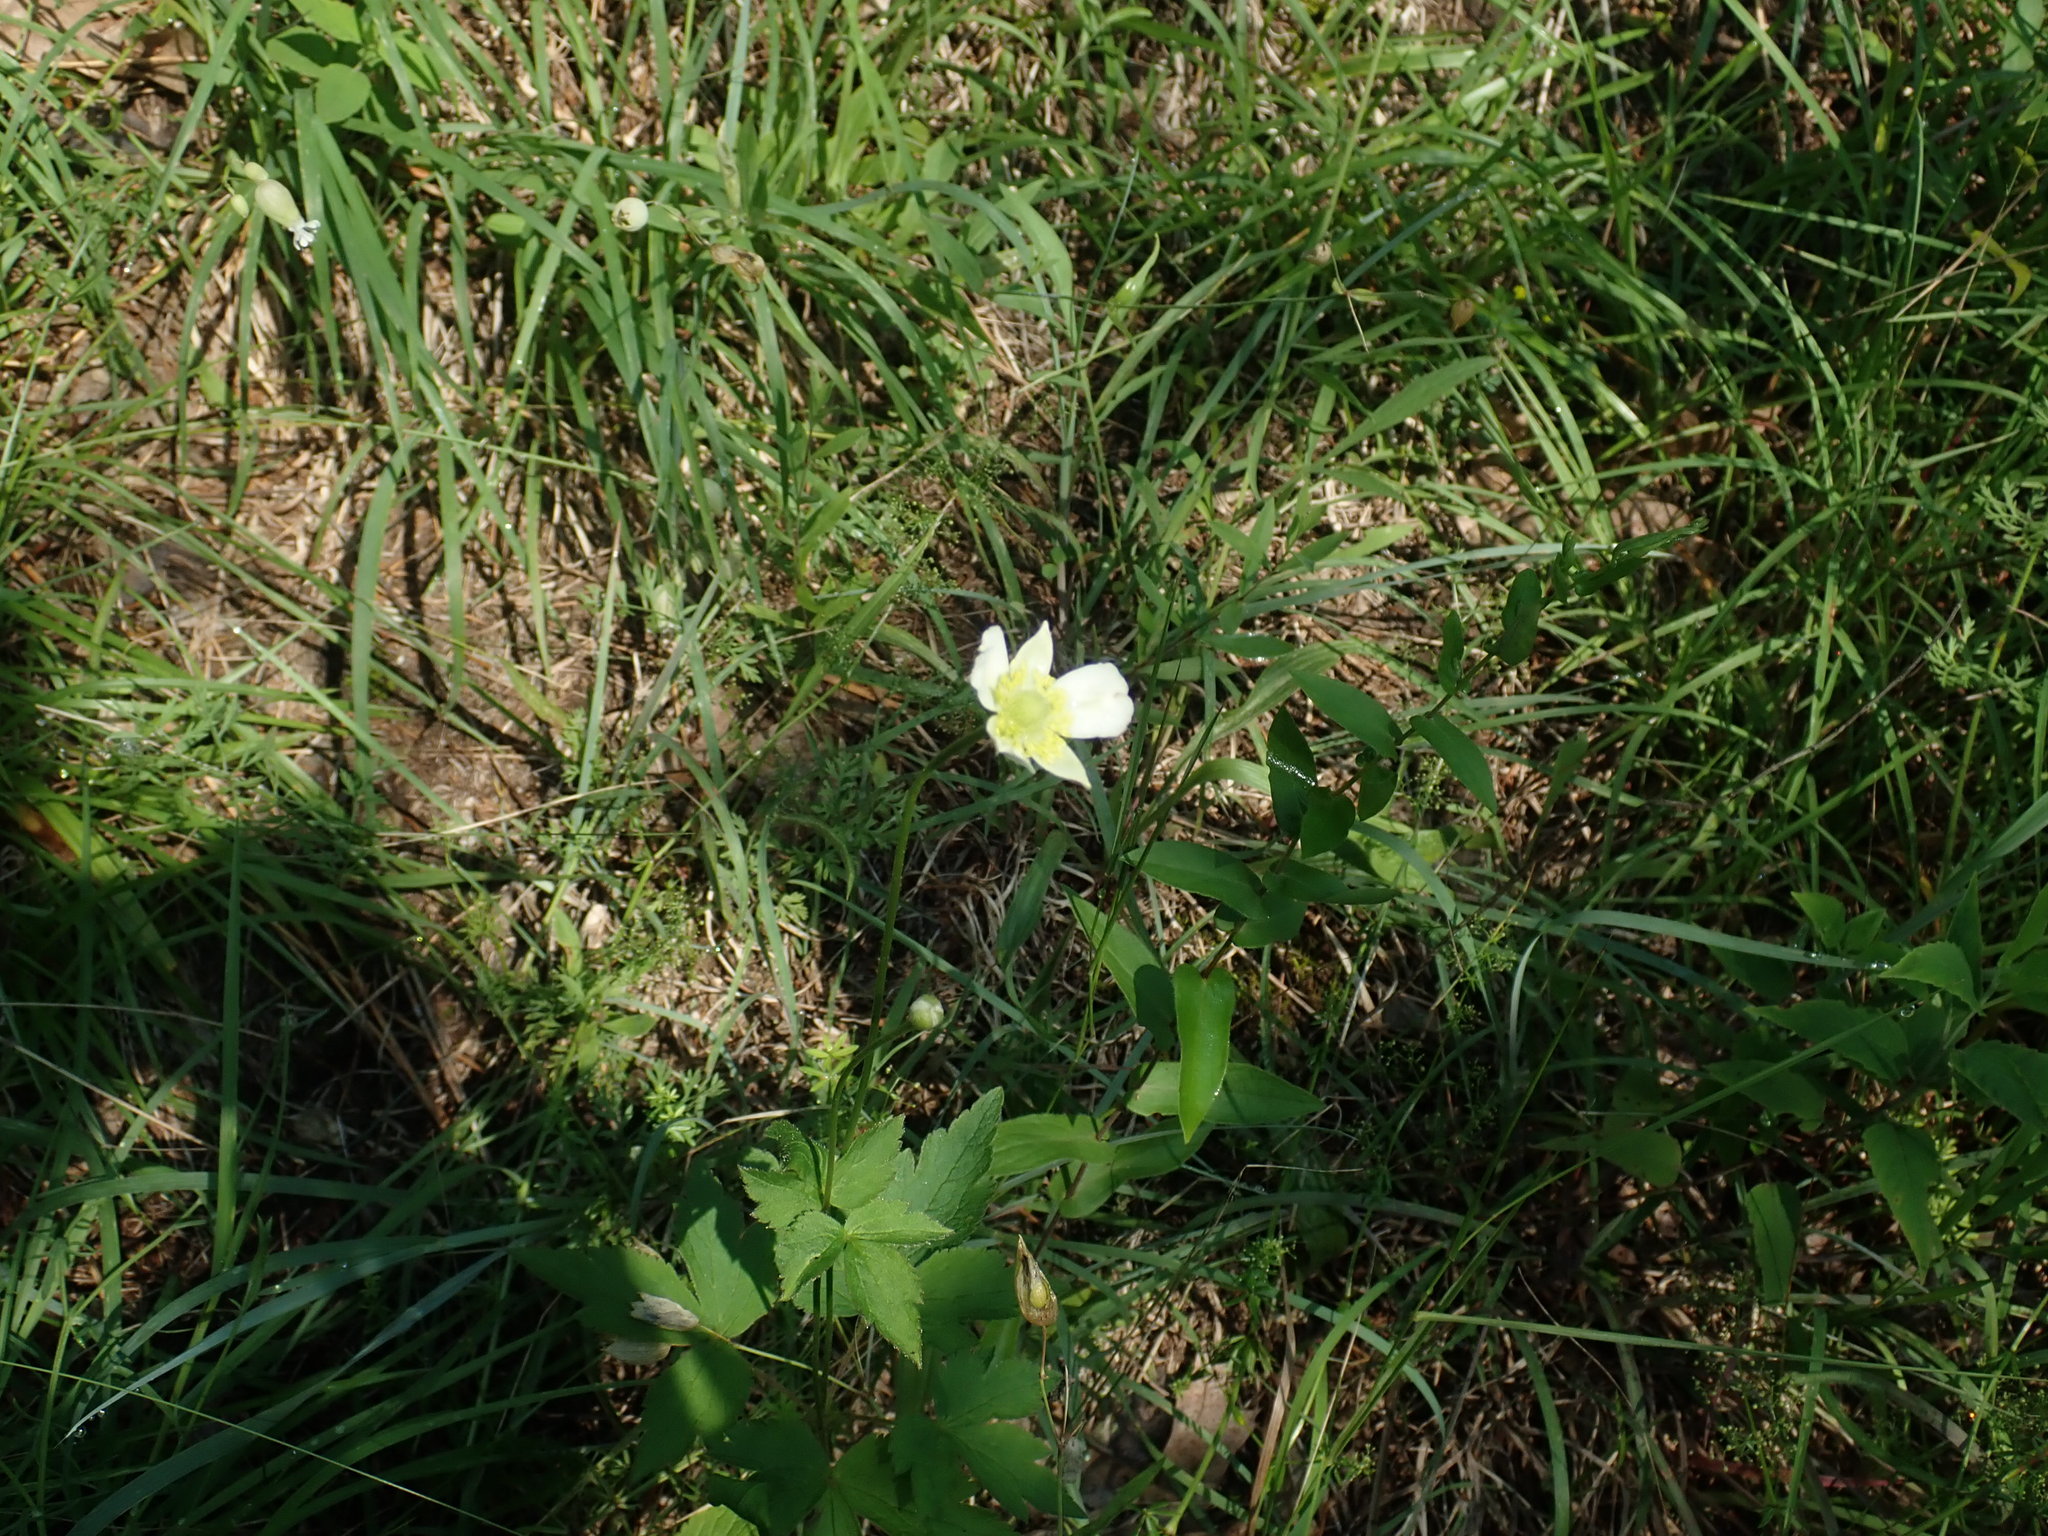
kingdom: Plantae
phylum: Tracheophyta
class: Magnoliopsida
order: Ranunculales
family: Ranunculaceae
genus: Anemone
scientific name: Anemone virginiana
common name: Tall anemone
